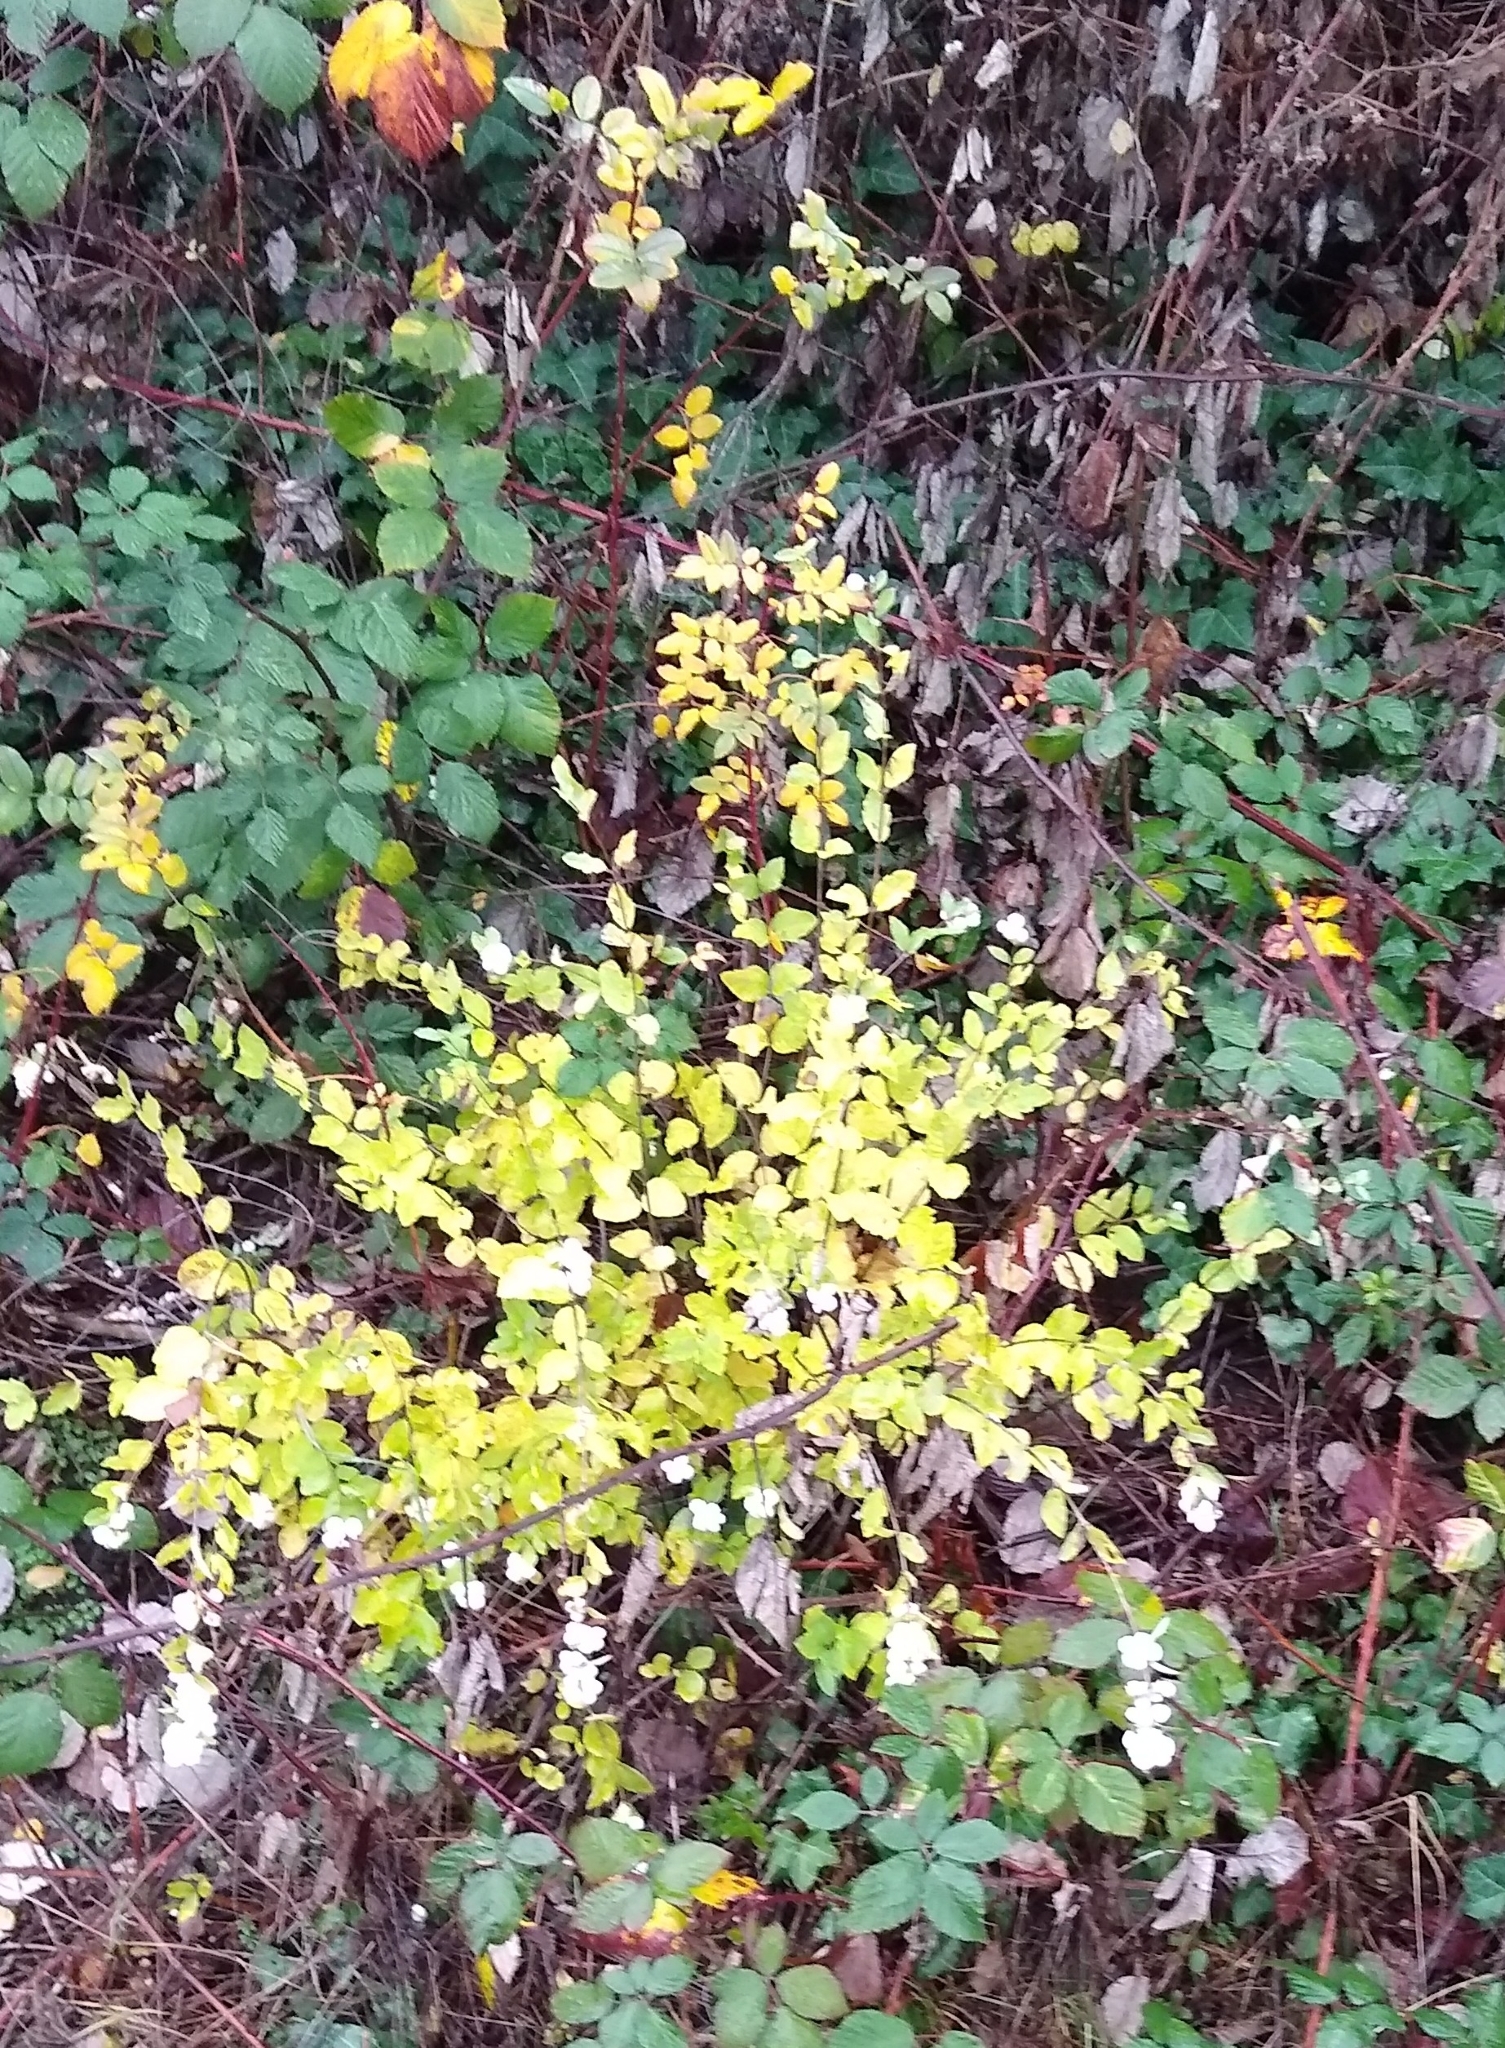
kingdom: Plantae
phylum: Tracheophyta
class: Magnoliopsida
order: Dipsacales
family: Caprifoliaceae
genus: Symphoricarpos
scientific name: Symphoricarpos albus
